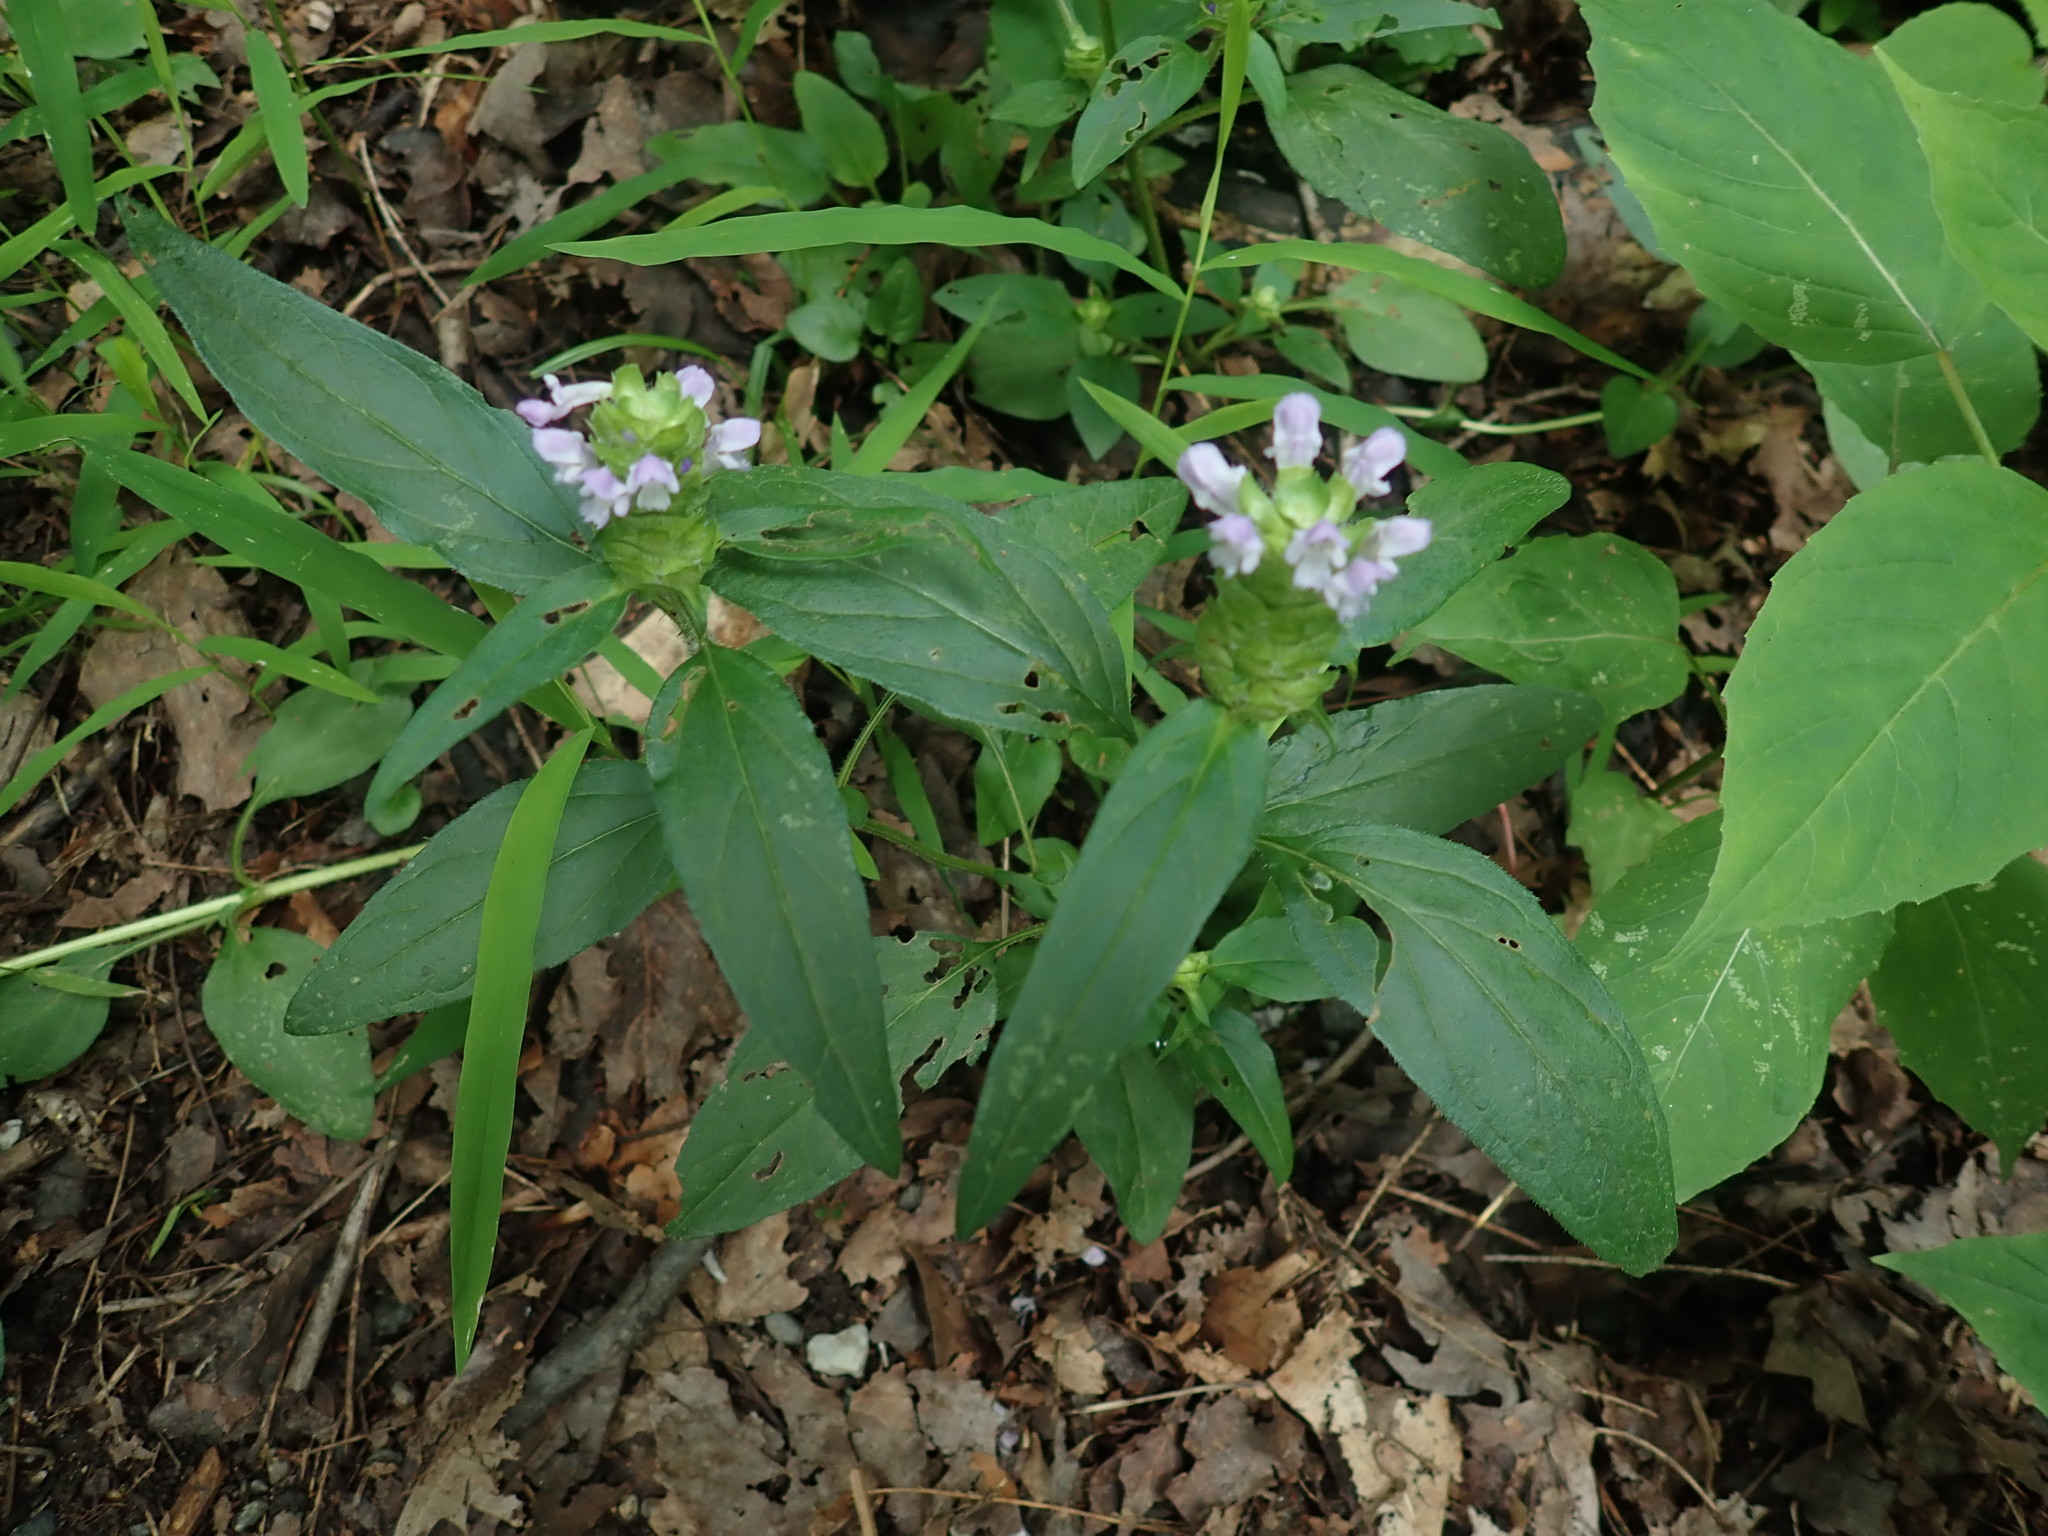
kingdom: Plantae
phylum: Tracheophyta
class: Magnoliopsida
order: Lamiales
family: Lamiaceae
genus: Prunella
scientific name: Prunella vulgaris
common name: Heal-all
